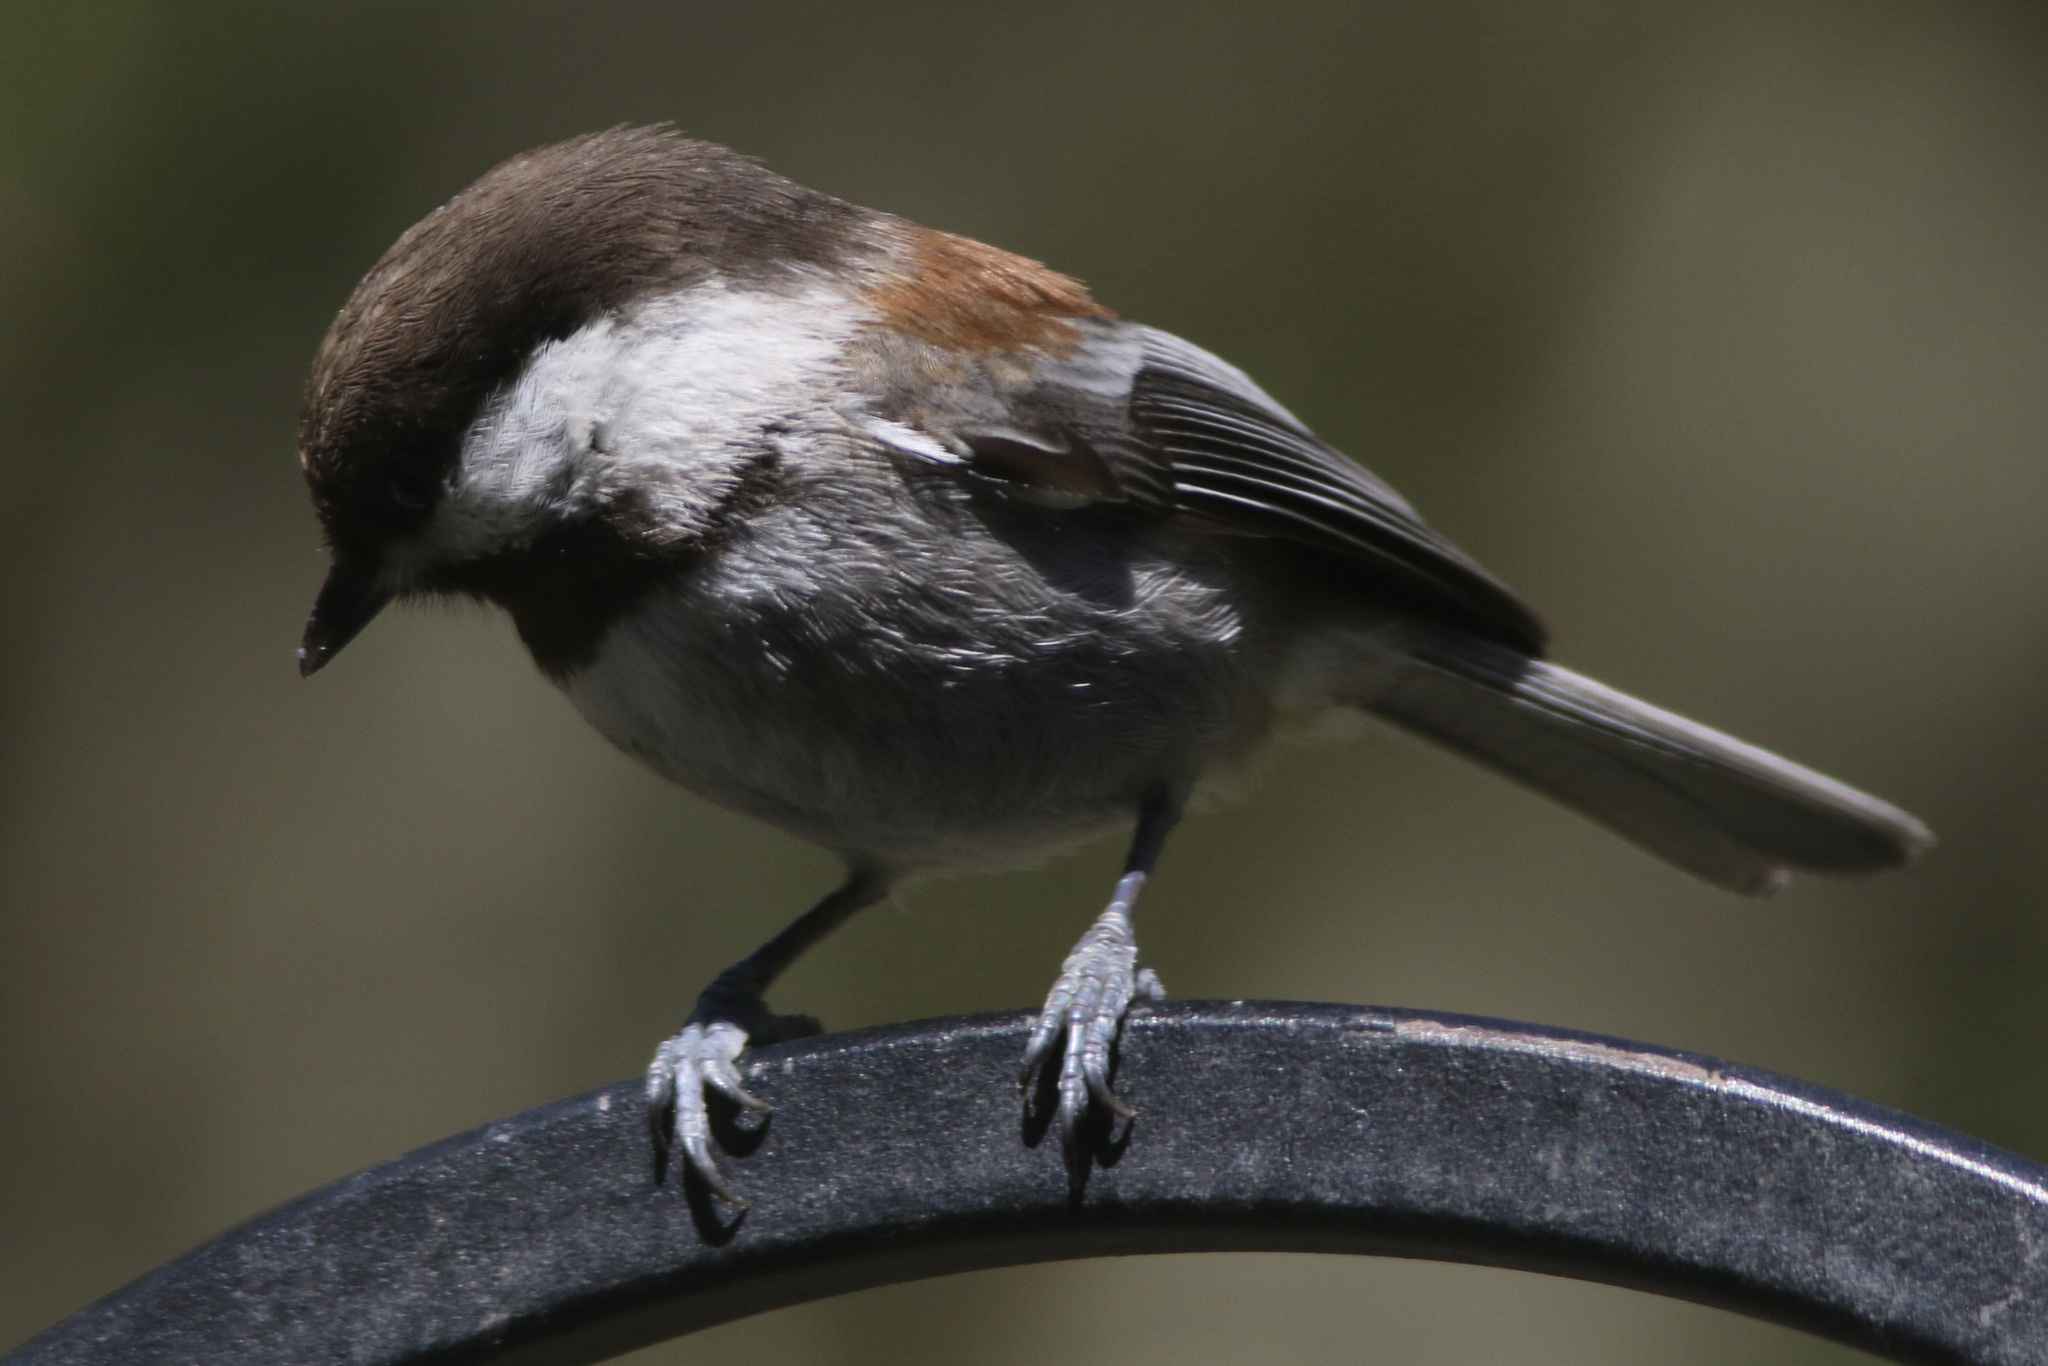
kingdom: Animalia
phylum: Chordata
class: Aves
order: Passeriformes
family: Paridae
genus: Poecile
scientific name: Poecile rufescens
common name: Chestnut-backed chickadee
